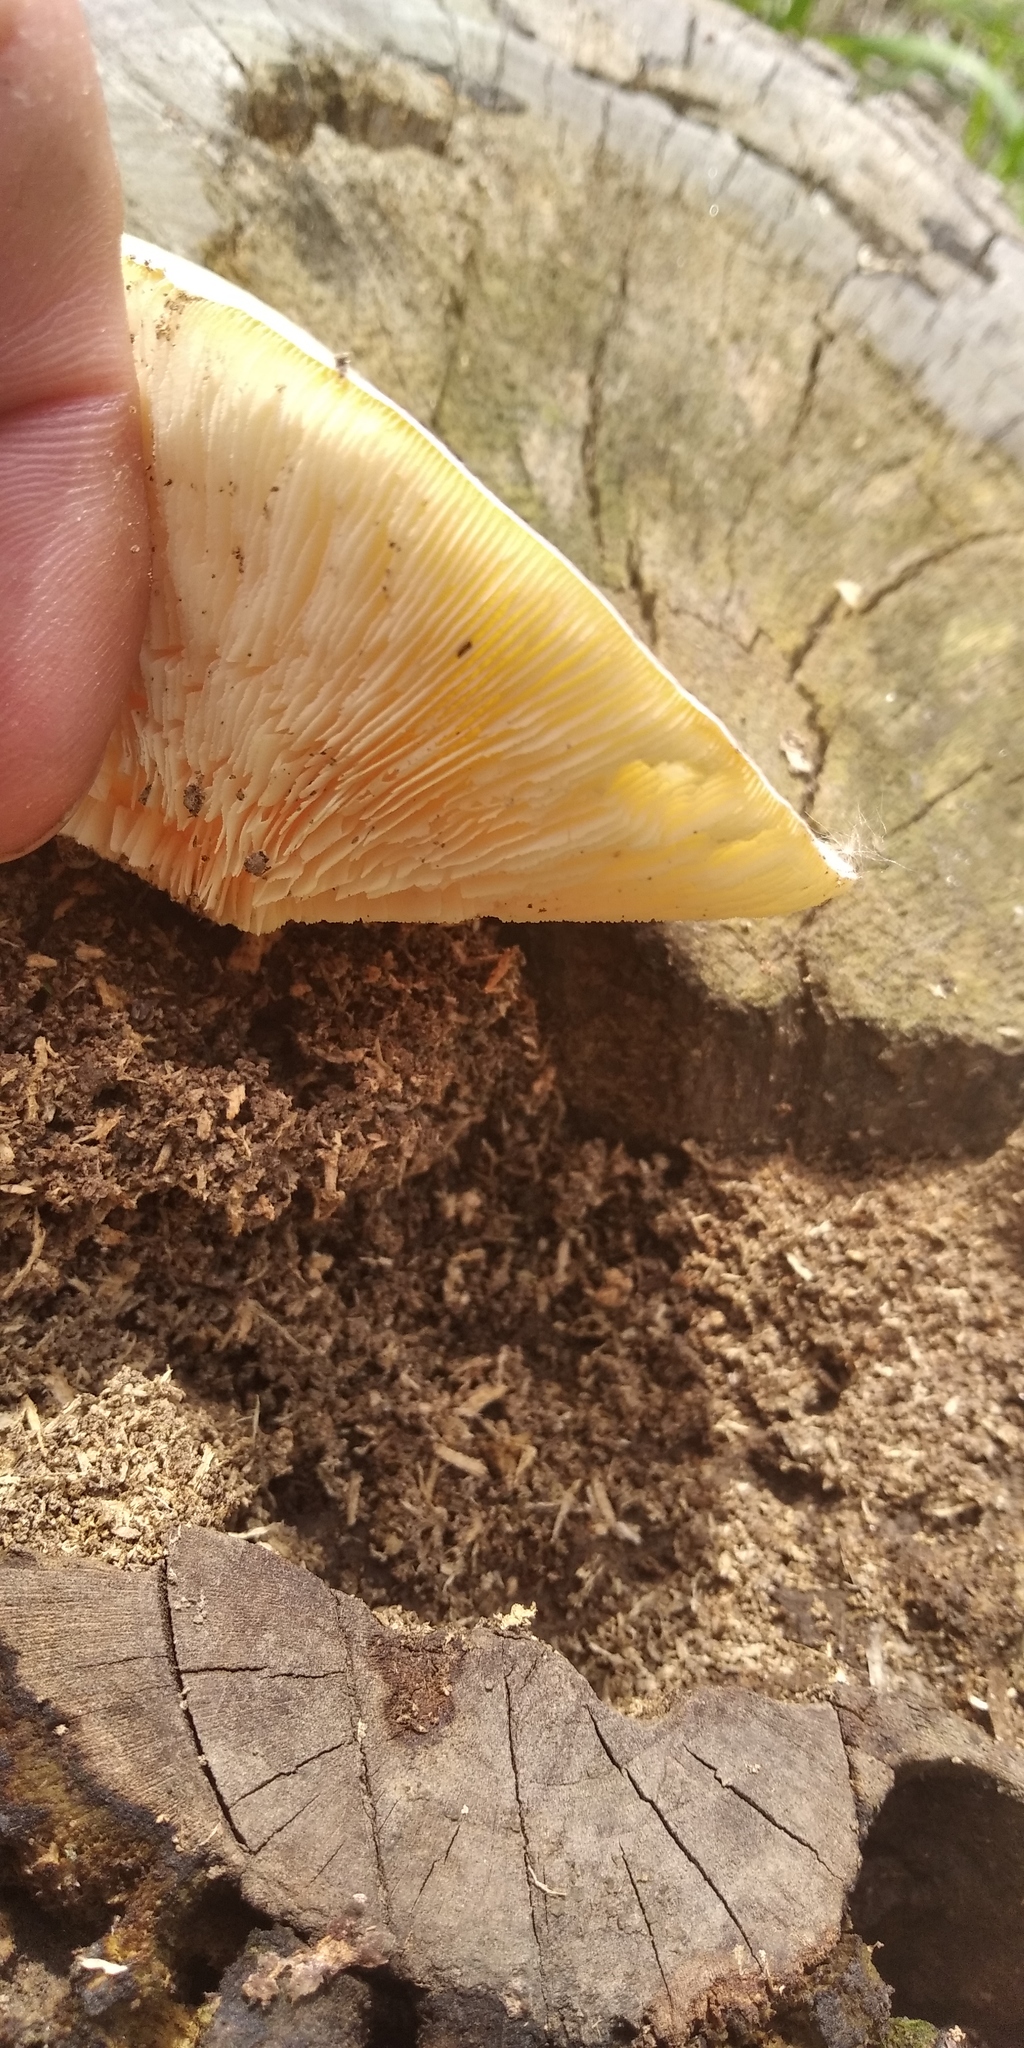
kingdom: Fungi
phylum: Basidiomycota
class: Agaricomycetes
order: Polyporales
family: Polyporaceae
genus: Lentinus
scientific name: Lentinus tigrinus
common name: Tiger sawgill
